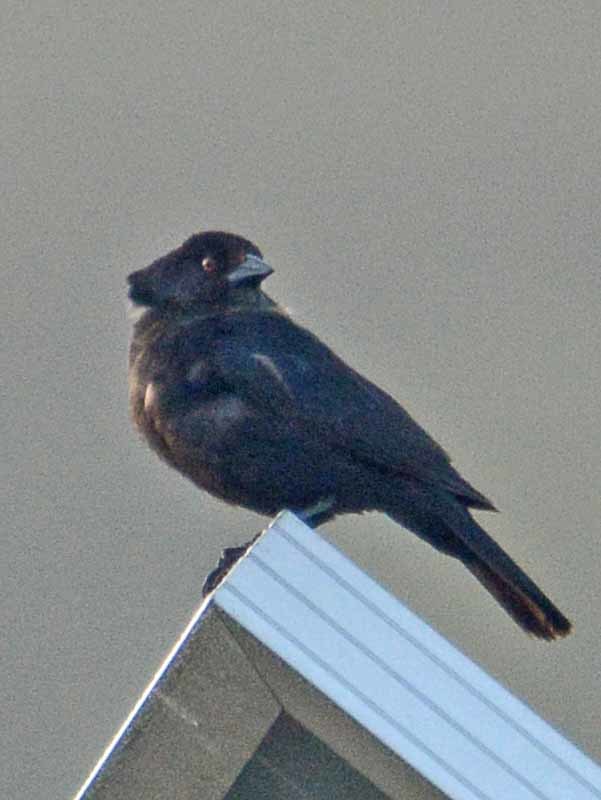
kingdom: Animalia
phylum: Chordata
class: Aves
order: Passeriformes
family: Icteridae
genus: Molothrus
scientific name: Molothrus aeneus
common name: Bronzed cowbird
